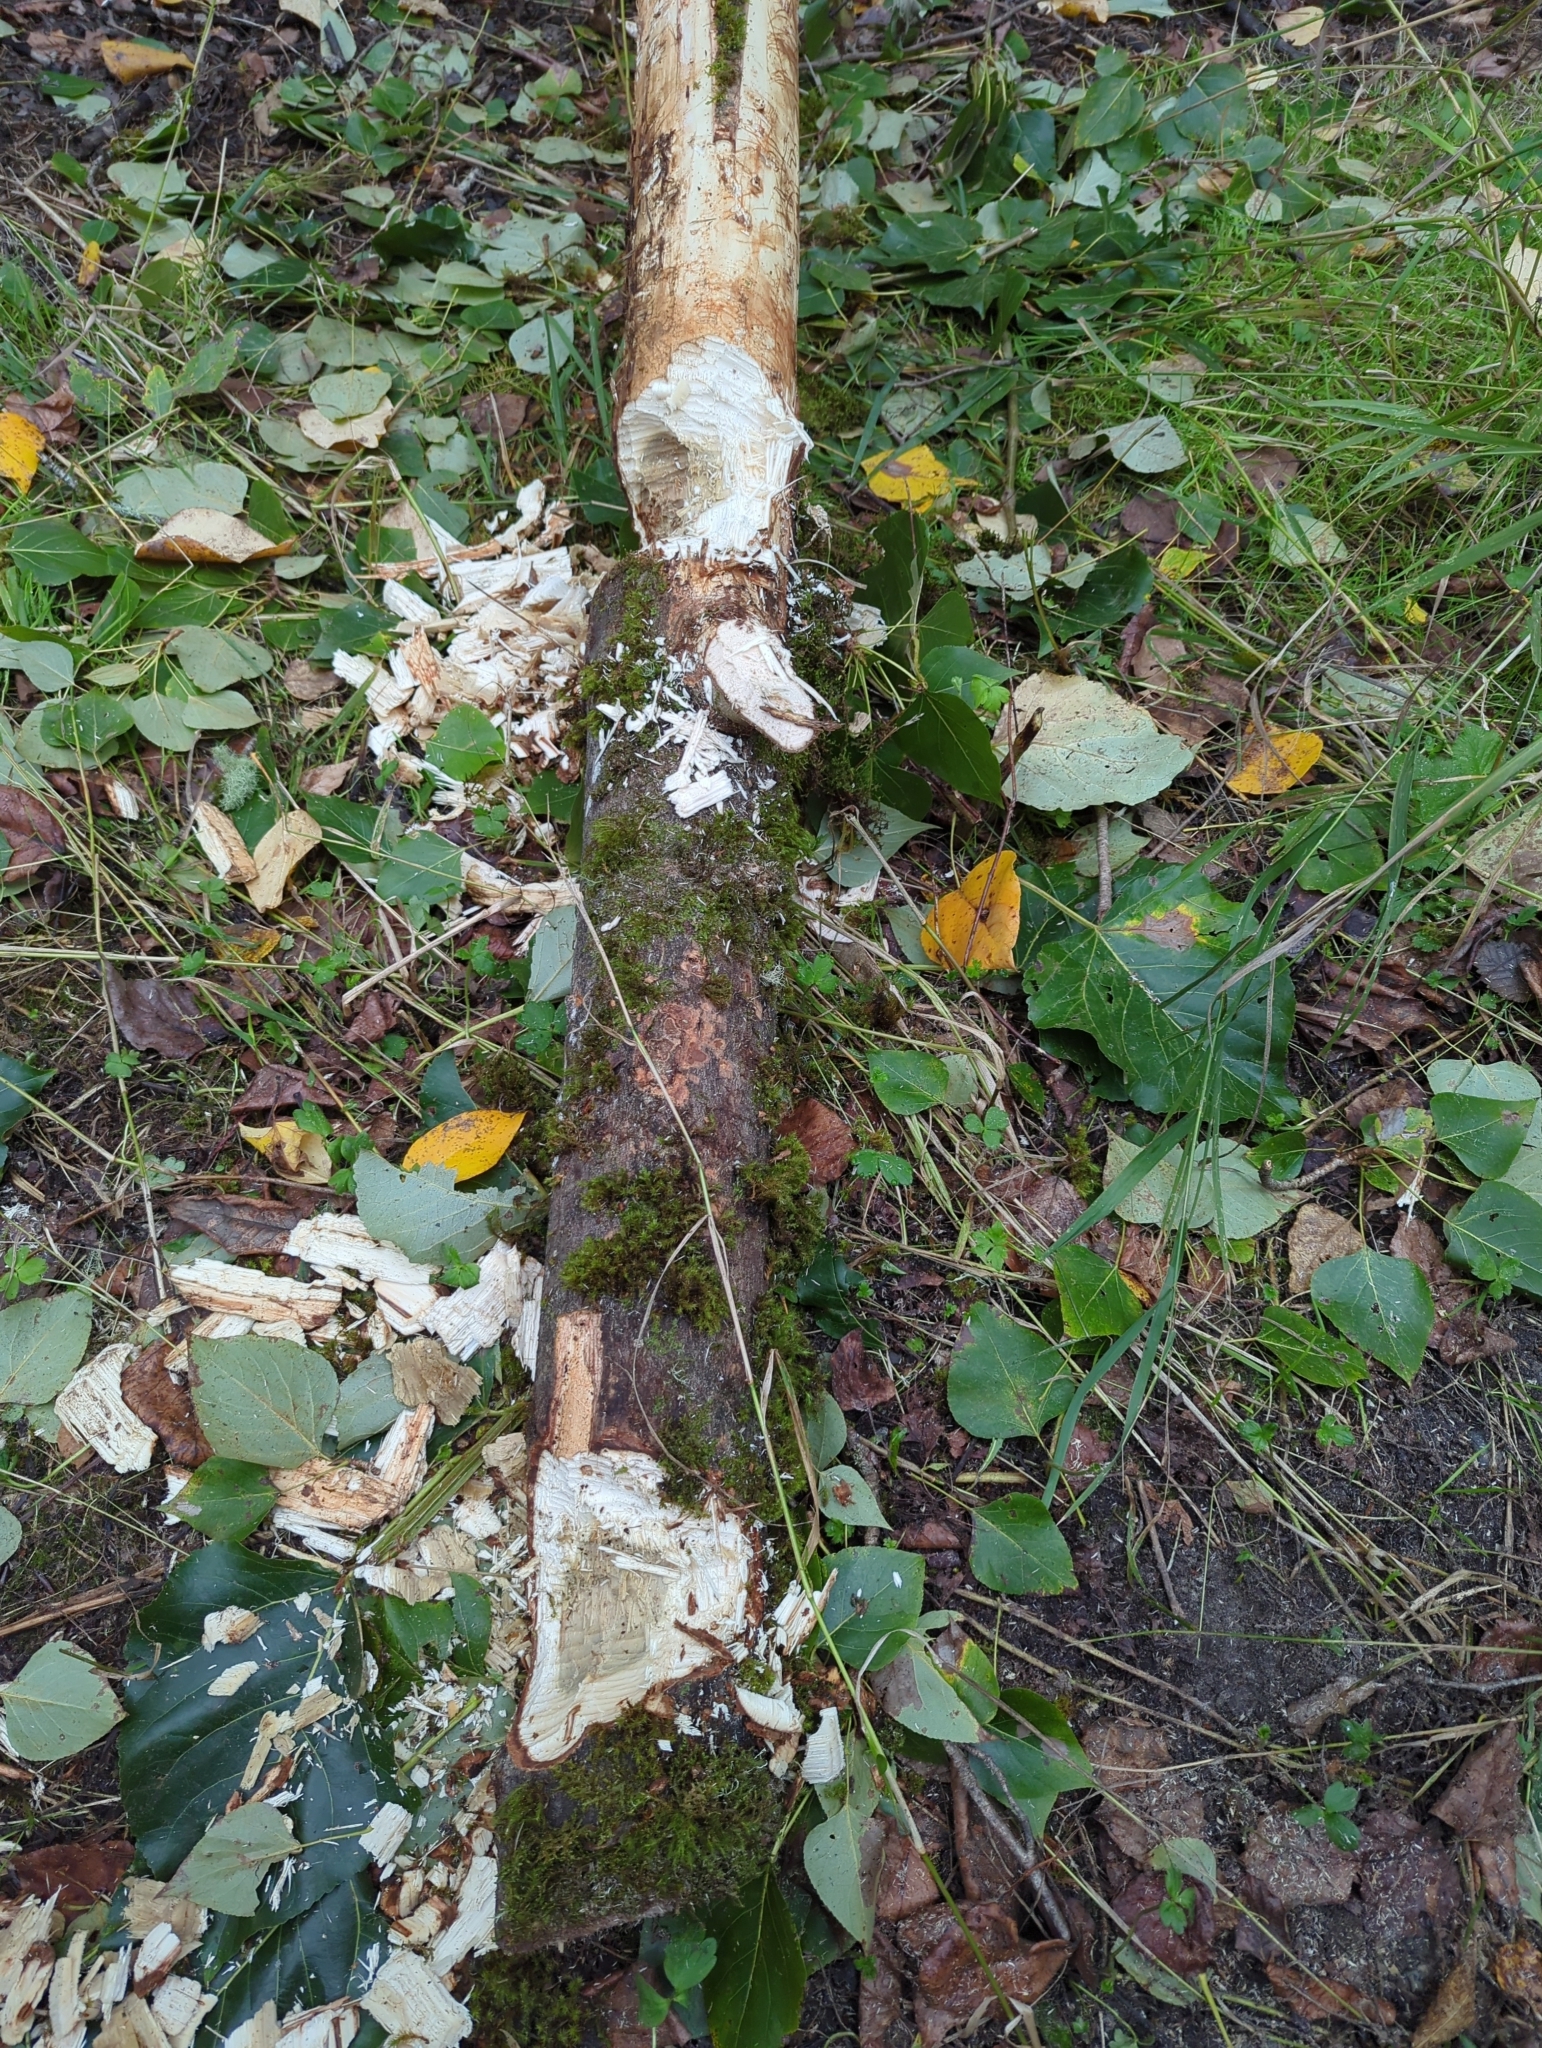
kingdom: Animalia
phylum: Chordata
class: Mammalia
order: Rodentia
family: Castoridae
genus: Castor
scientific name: Castor canadensis
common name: American beaver
